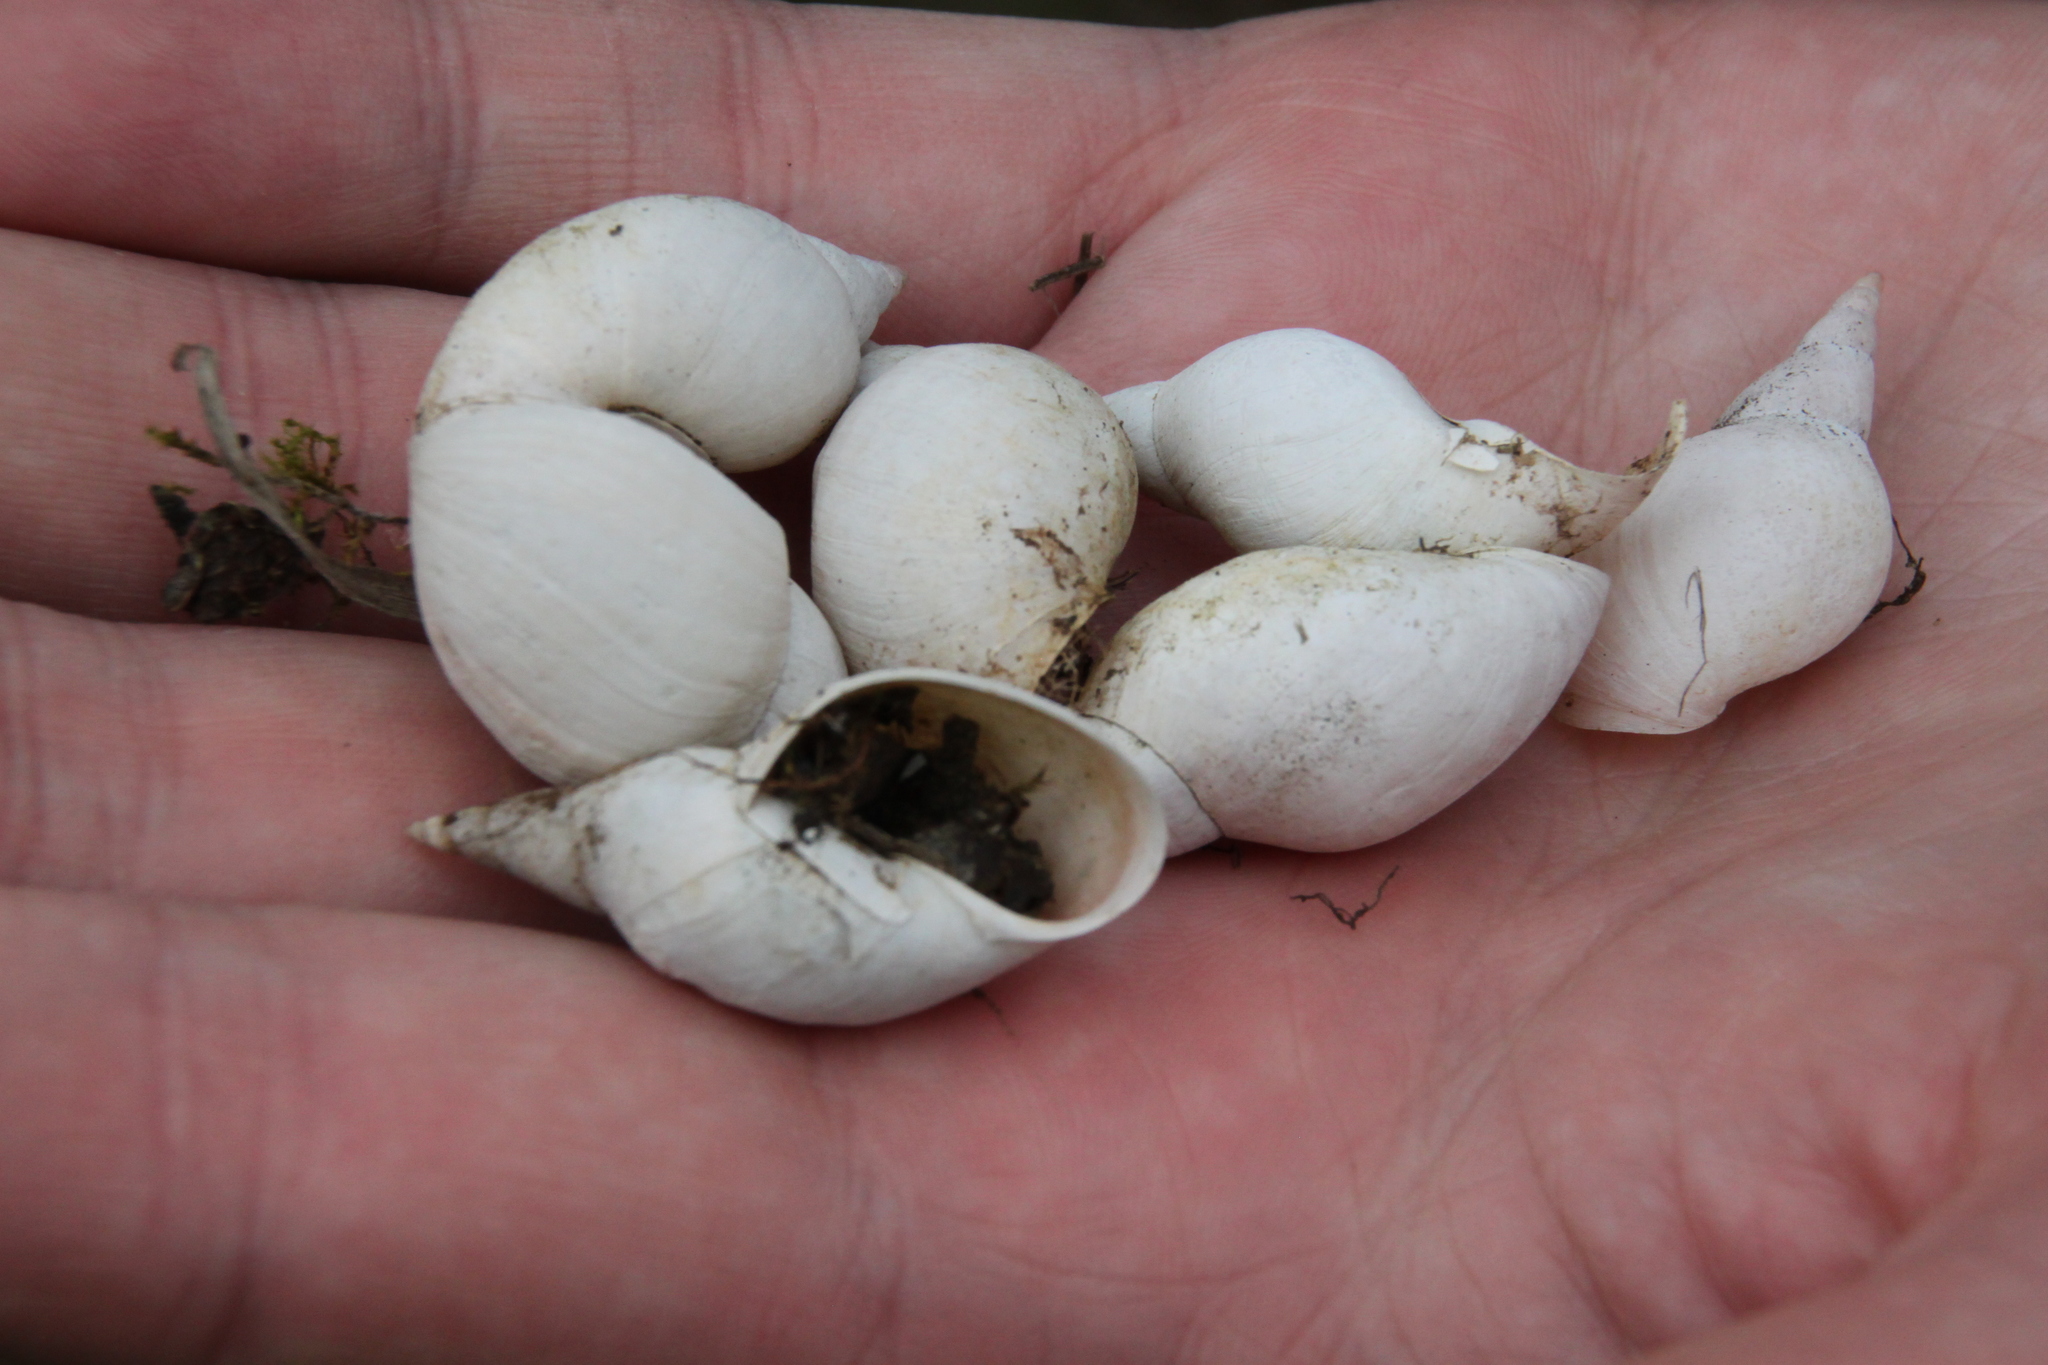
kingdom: Animalia
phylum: Mollusca
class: Gastropoda
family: Lymnaeidae
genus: Lymnaea
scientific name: Lymnaea stagnalis
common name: Great pond snail
